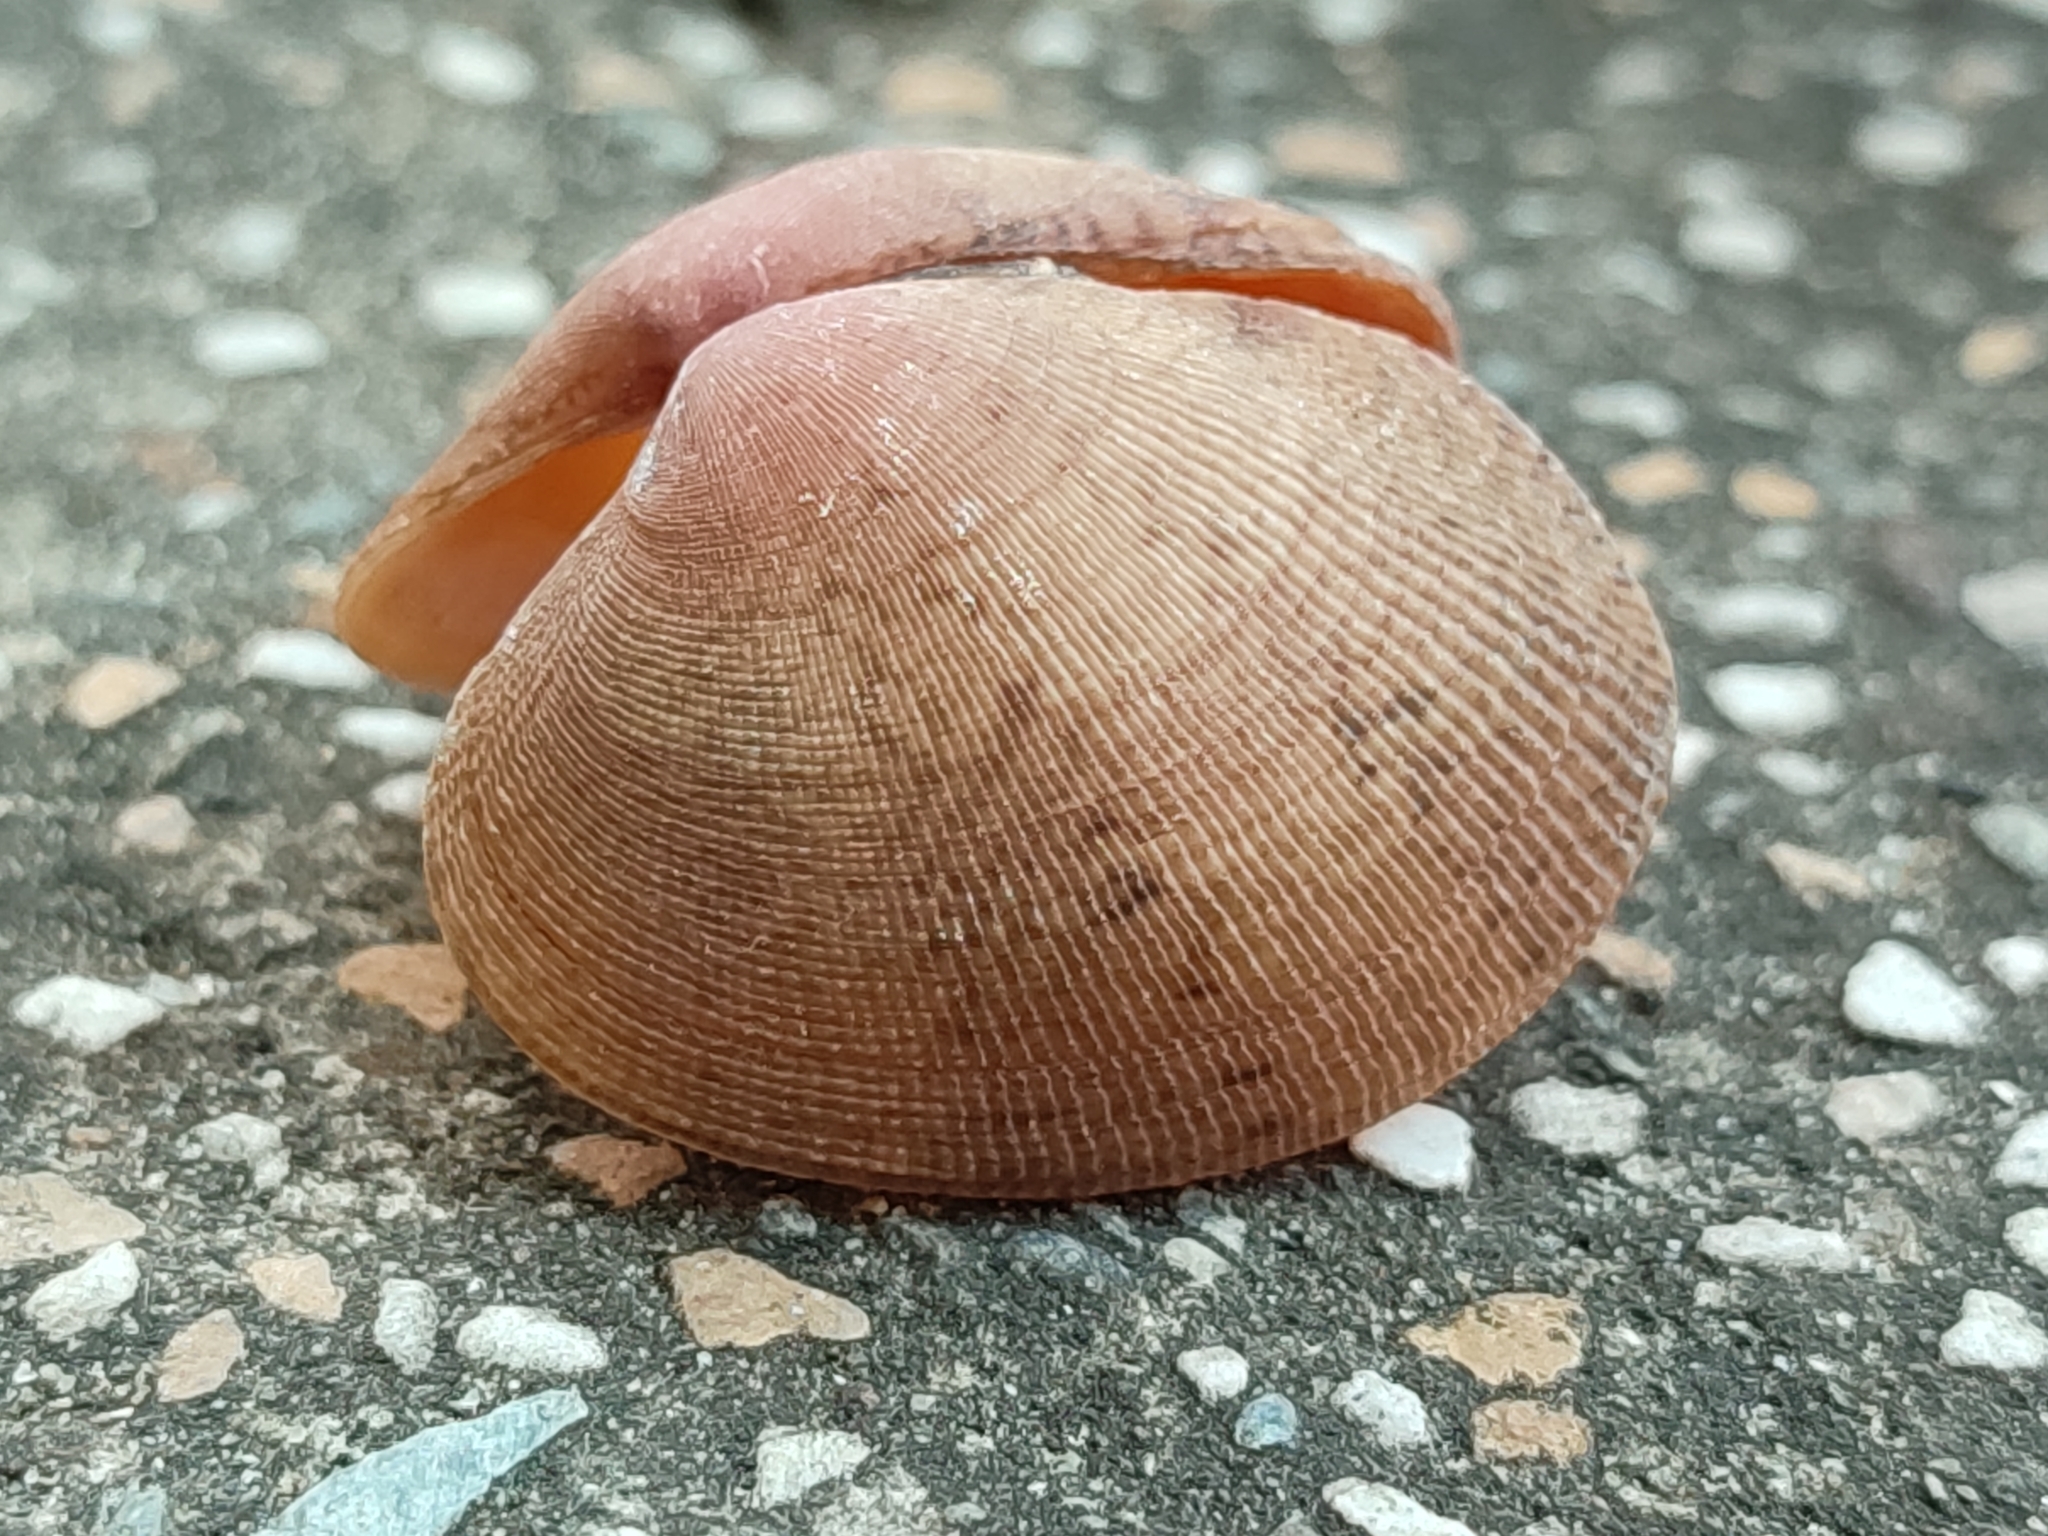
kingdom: Animalia
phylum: Mollusca
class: Bivalvia
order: Venerida
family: Veneridae
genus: Venerupis
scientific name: Venerupis aspera
